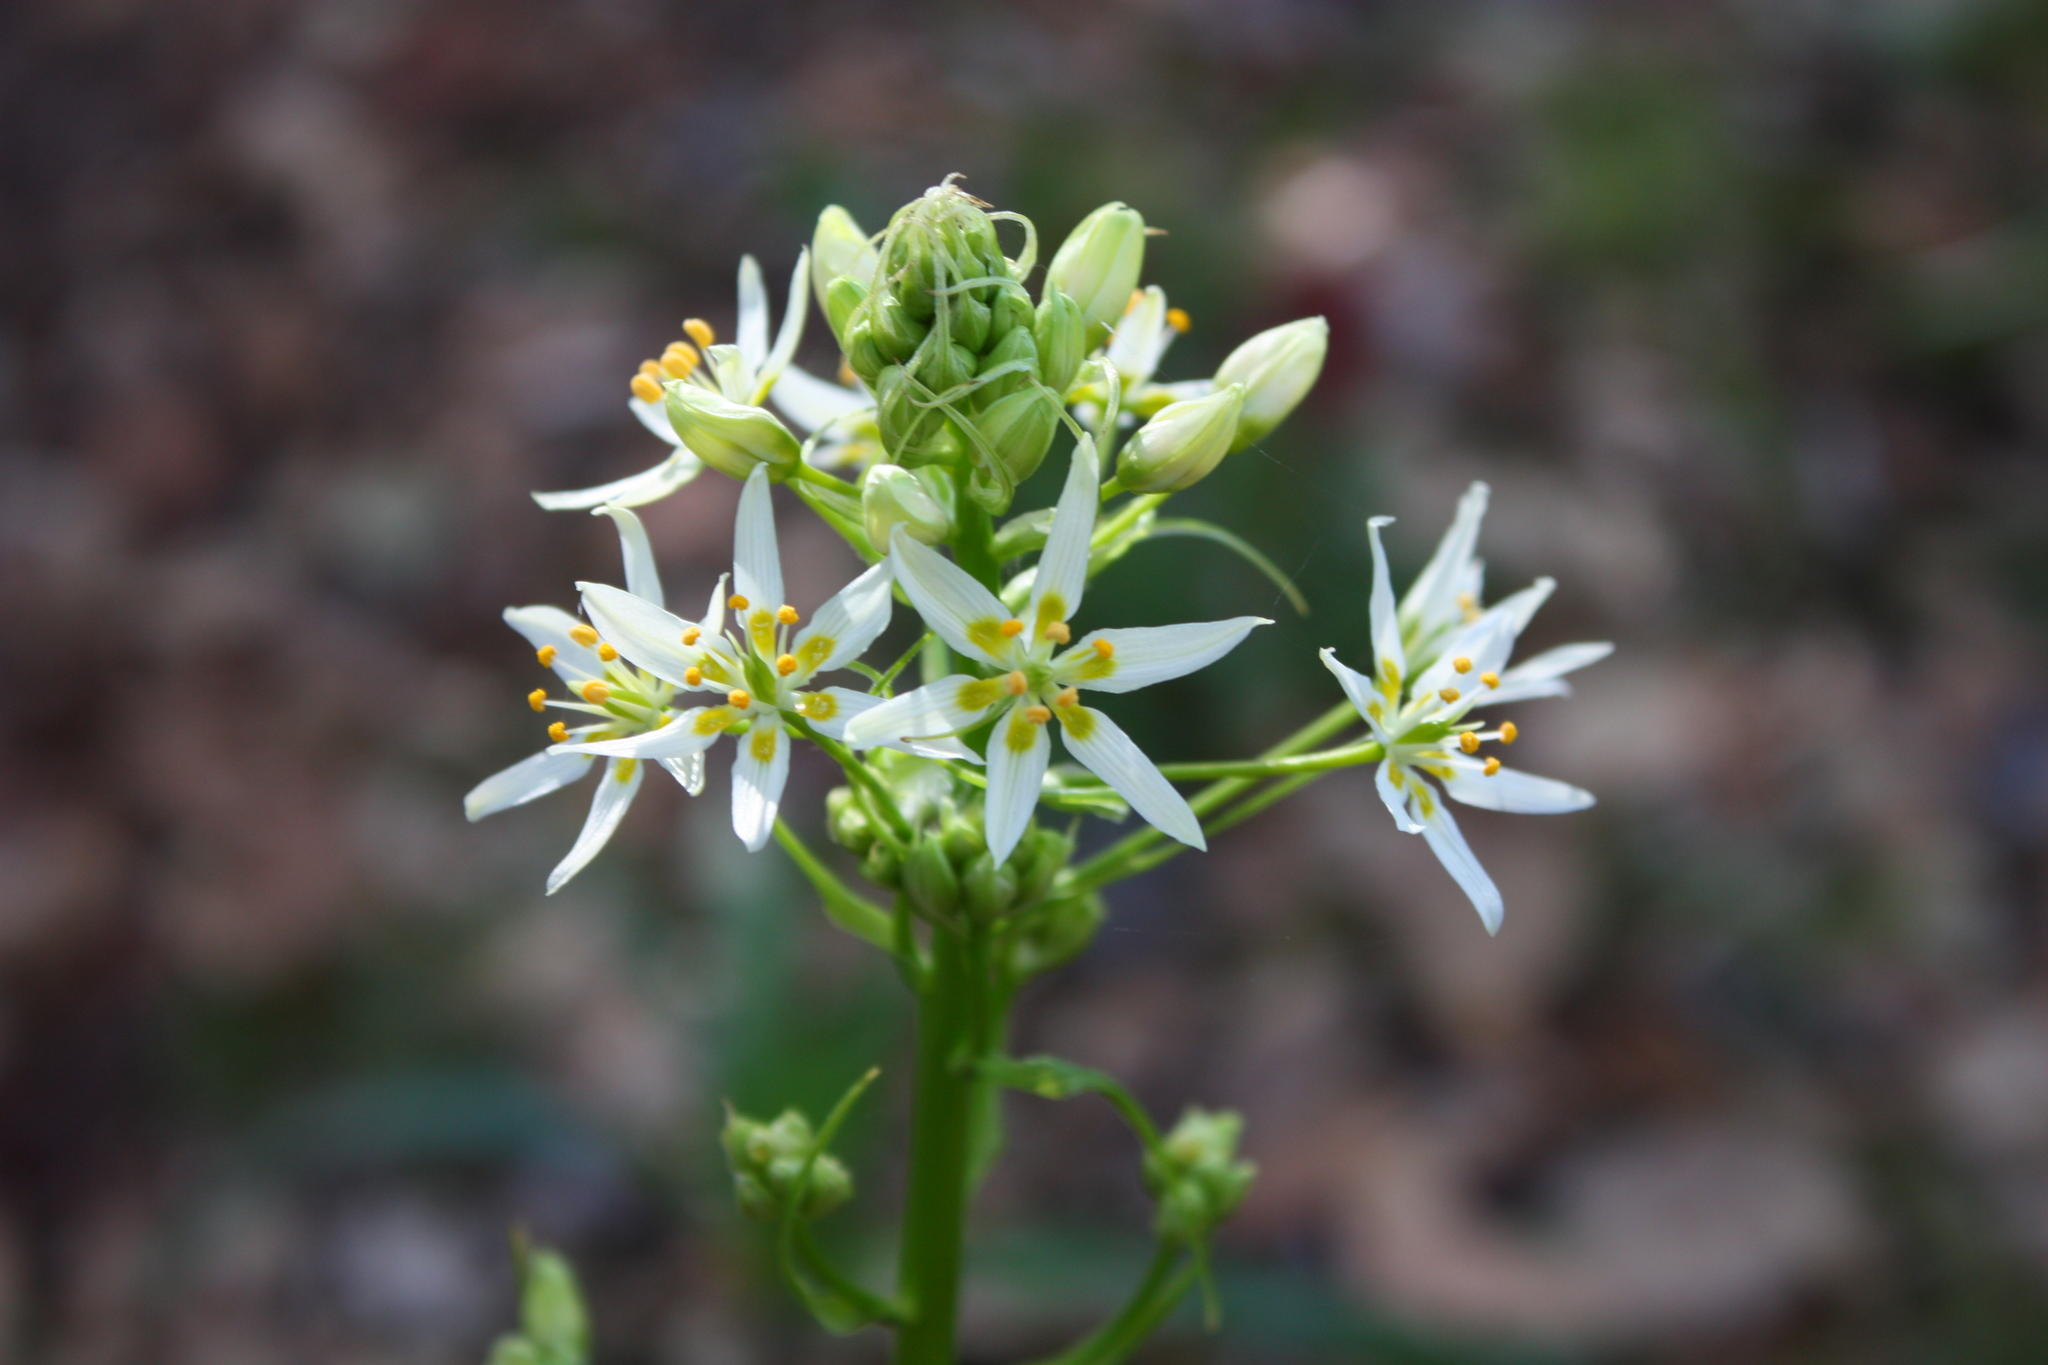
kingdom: Plantae
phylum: Tracheophyta
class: Liliopsida
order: Liliales
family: Melanthiaceae
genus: Toxicoscordion
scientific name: Toxicoscordion fremontii
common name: Fremont's death camas
